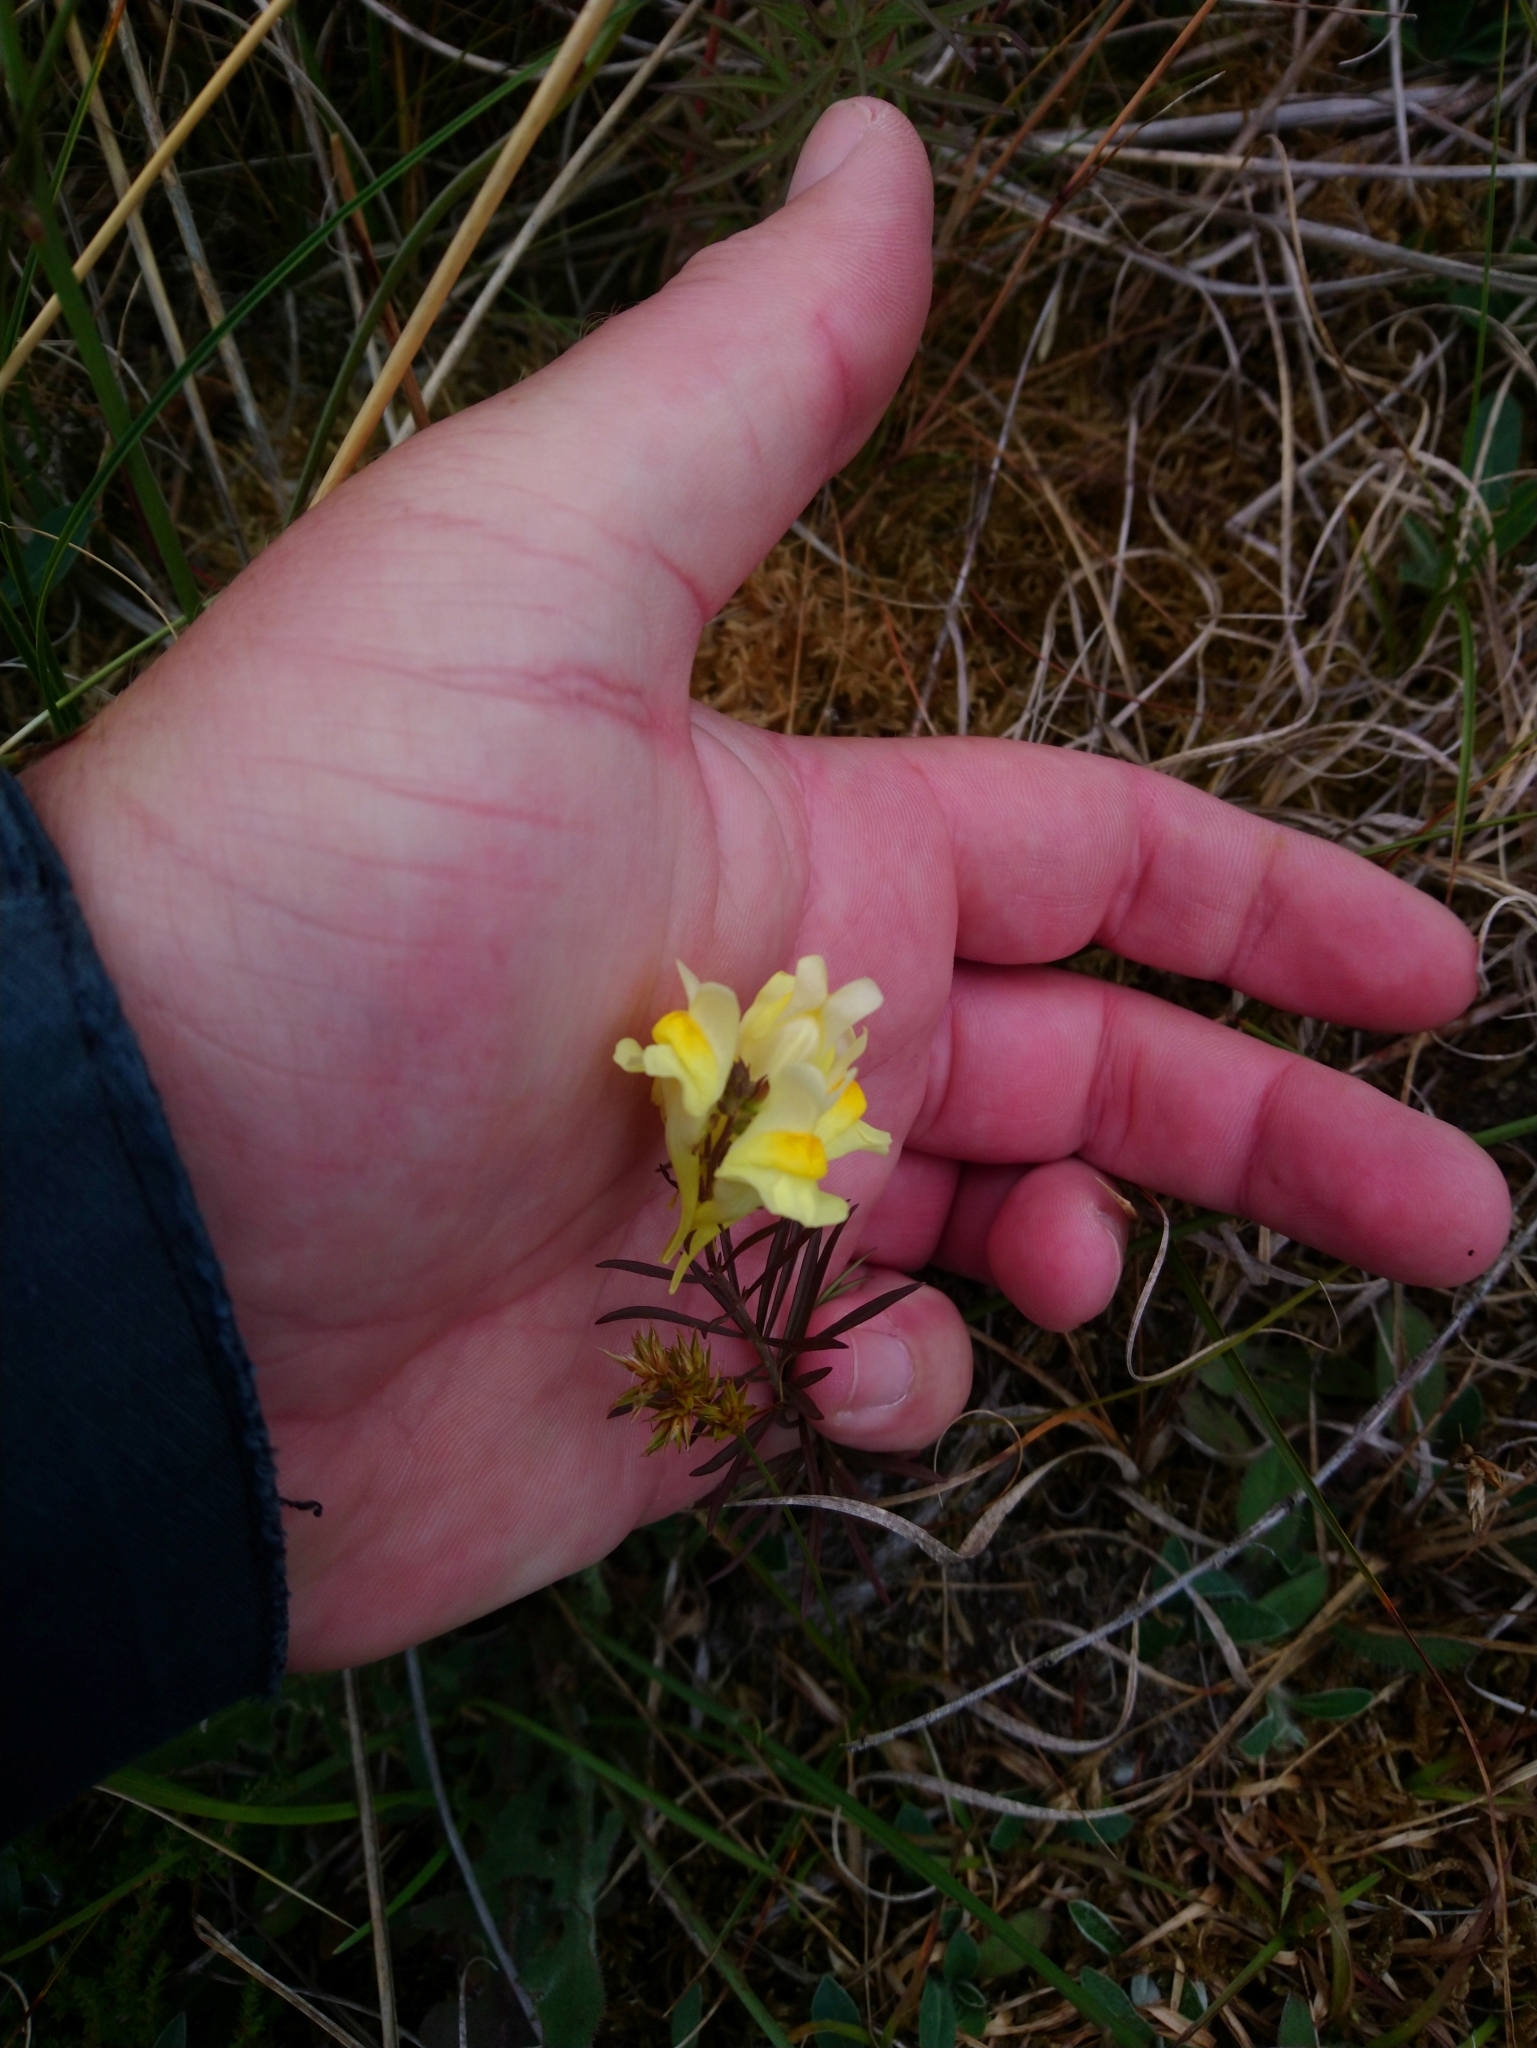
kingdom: Plantae
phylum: Tracheophyta
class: Magnoliopsida
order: Lamiales
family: Plantaginaceae
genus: Linaria
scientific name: Linaria vulgaris
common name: Butter and eggs
